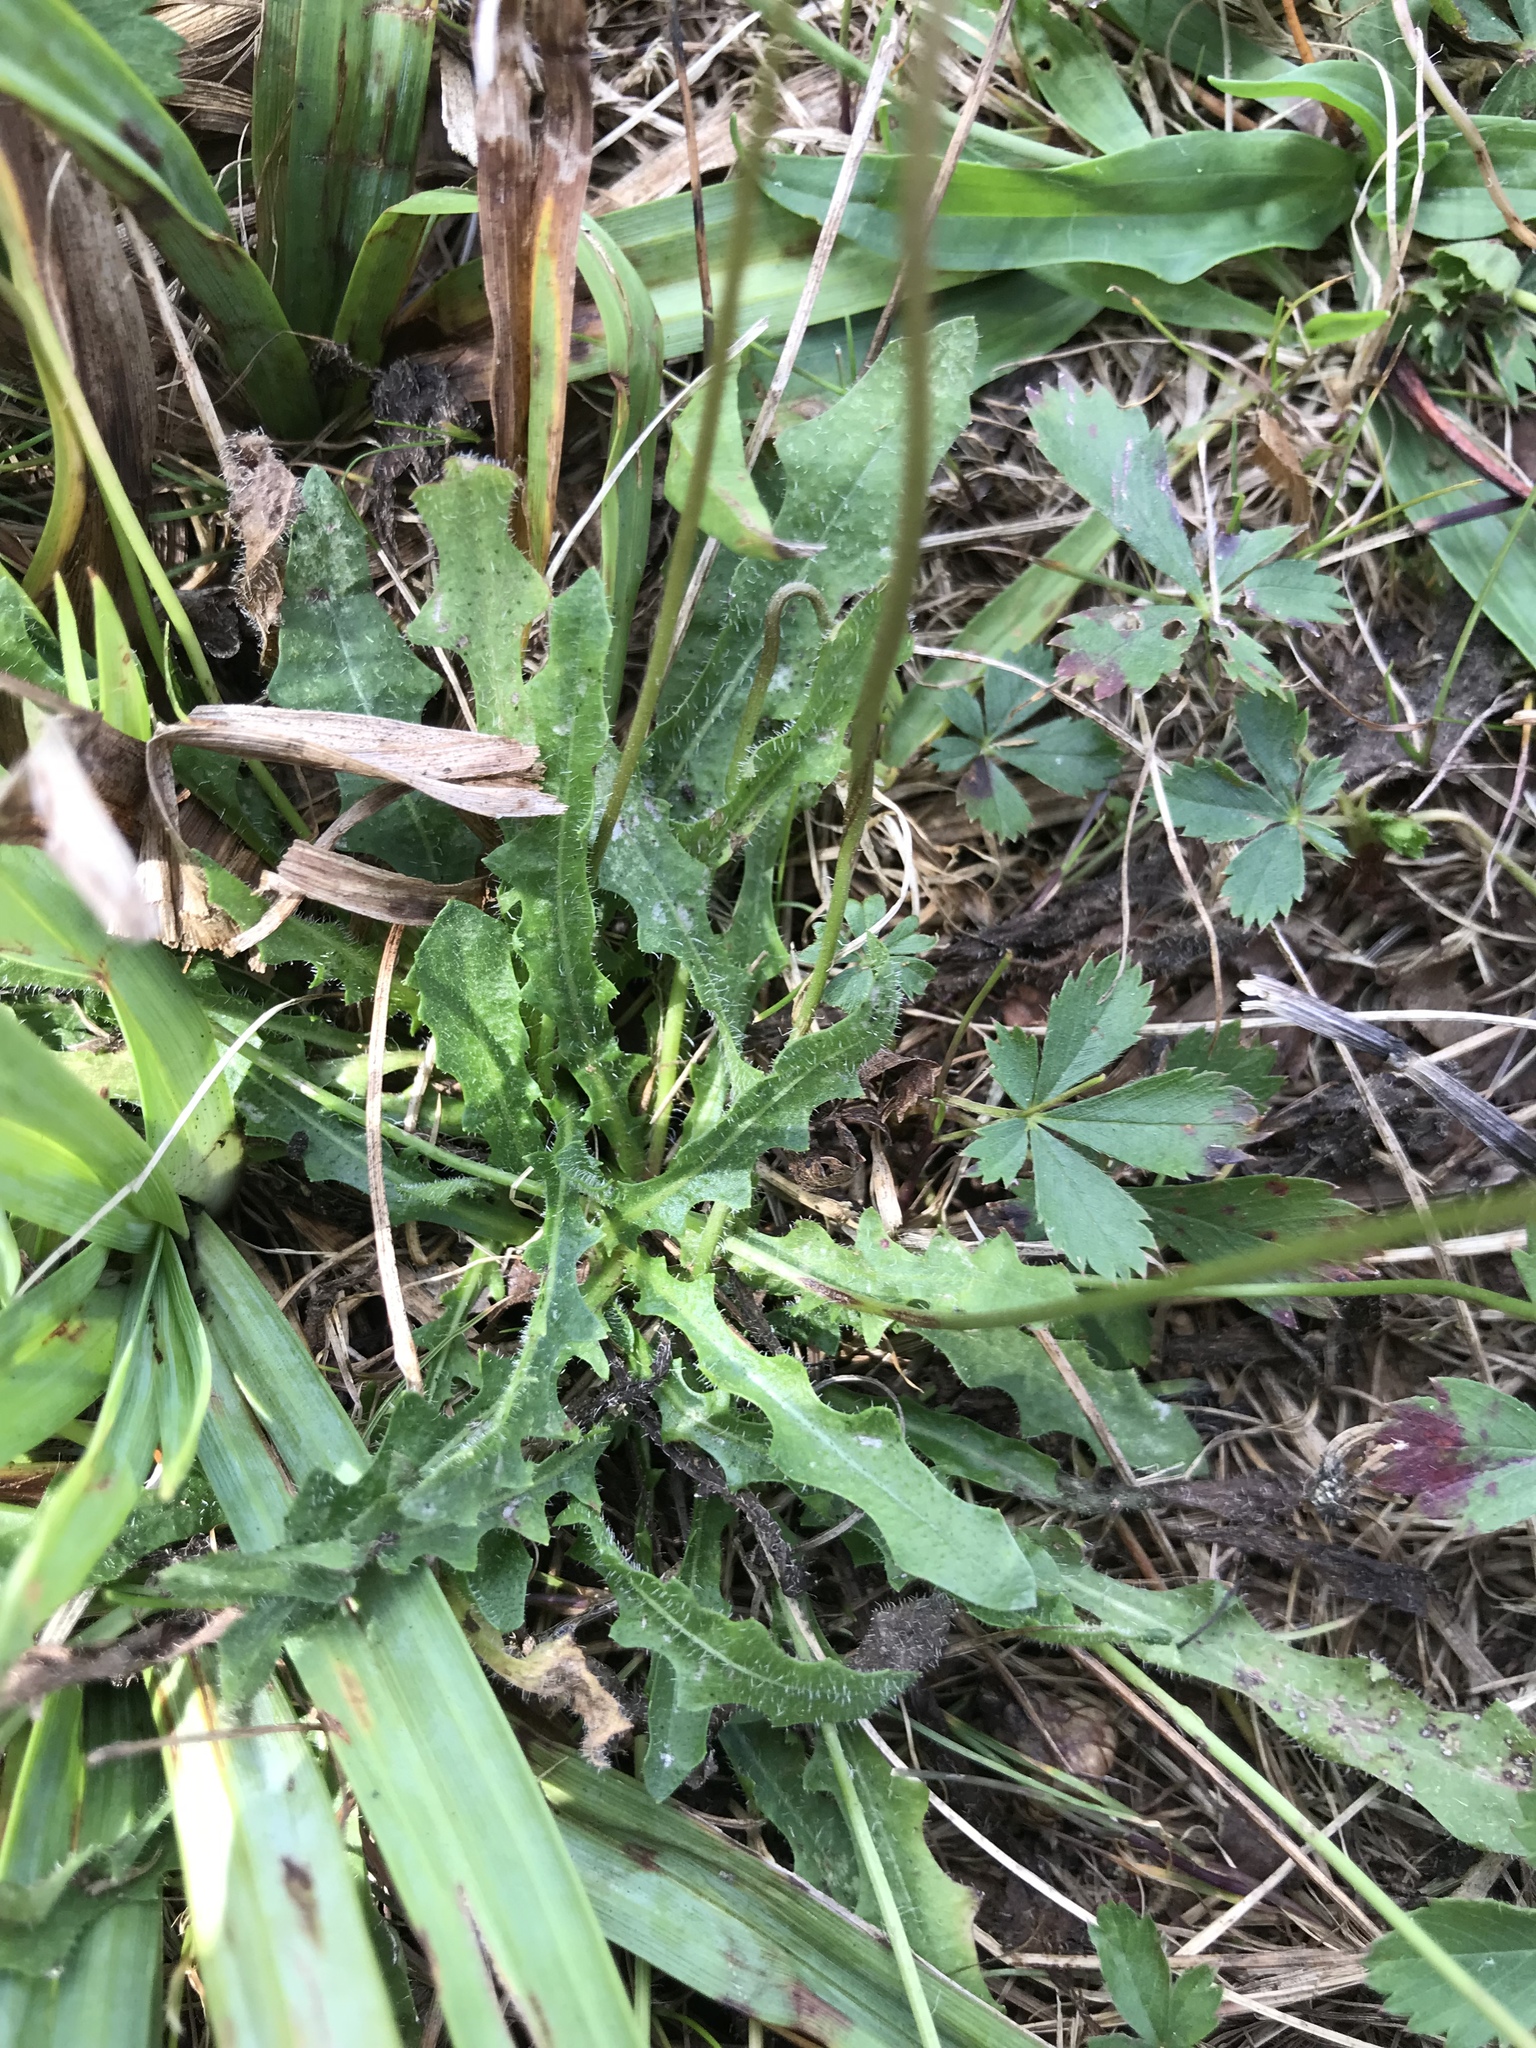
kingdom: Plantae
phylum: Tracheophyta
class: Magnoliopsida
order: Asterales
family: Asteraceae
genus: Hypochaeris
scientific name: Hypochaeris radicata
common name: Flatweed
